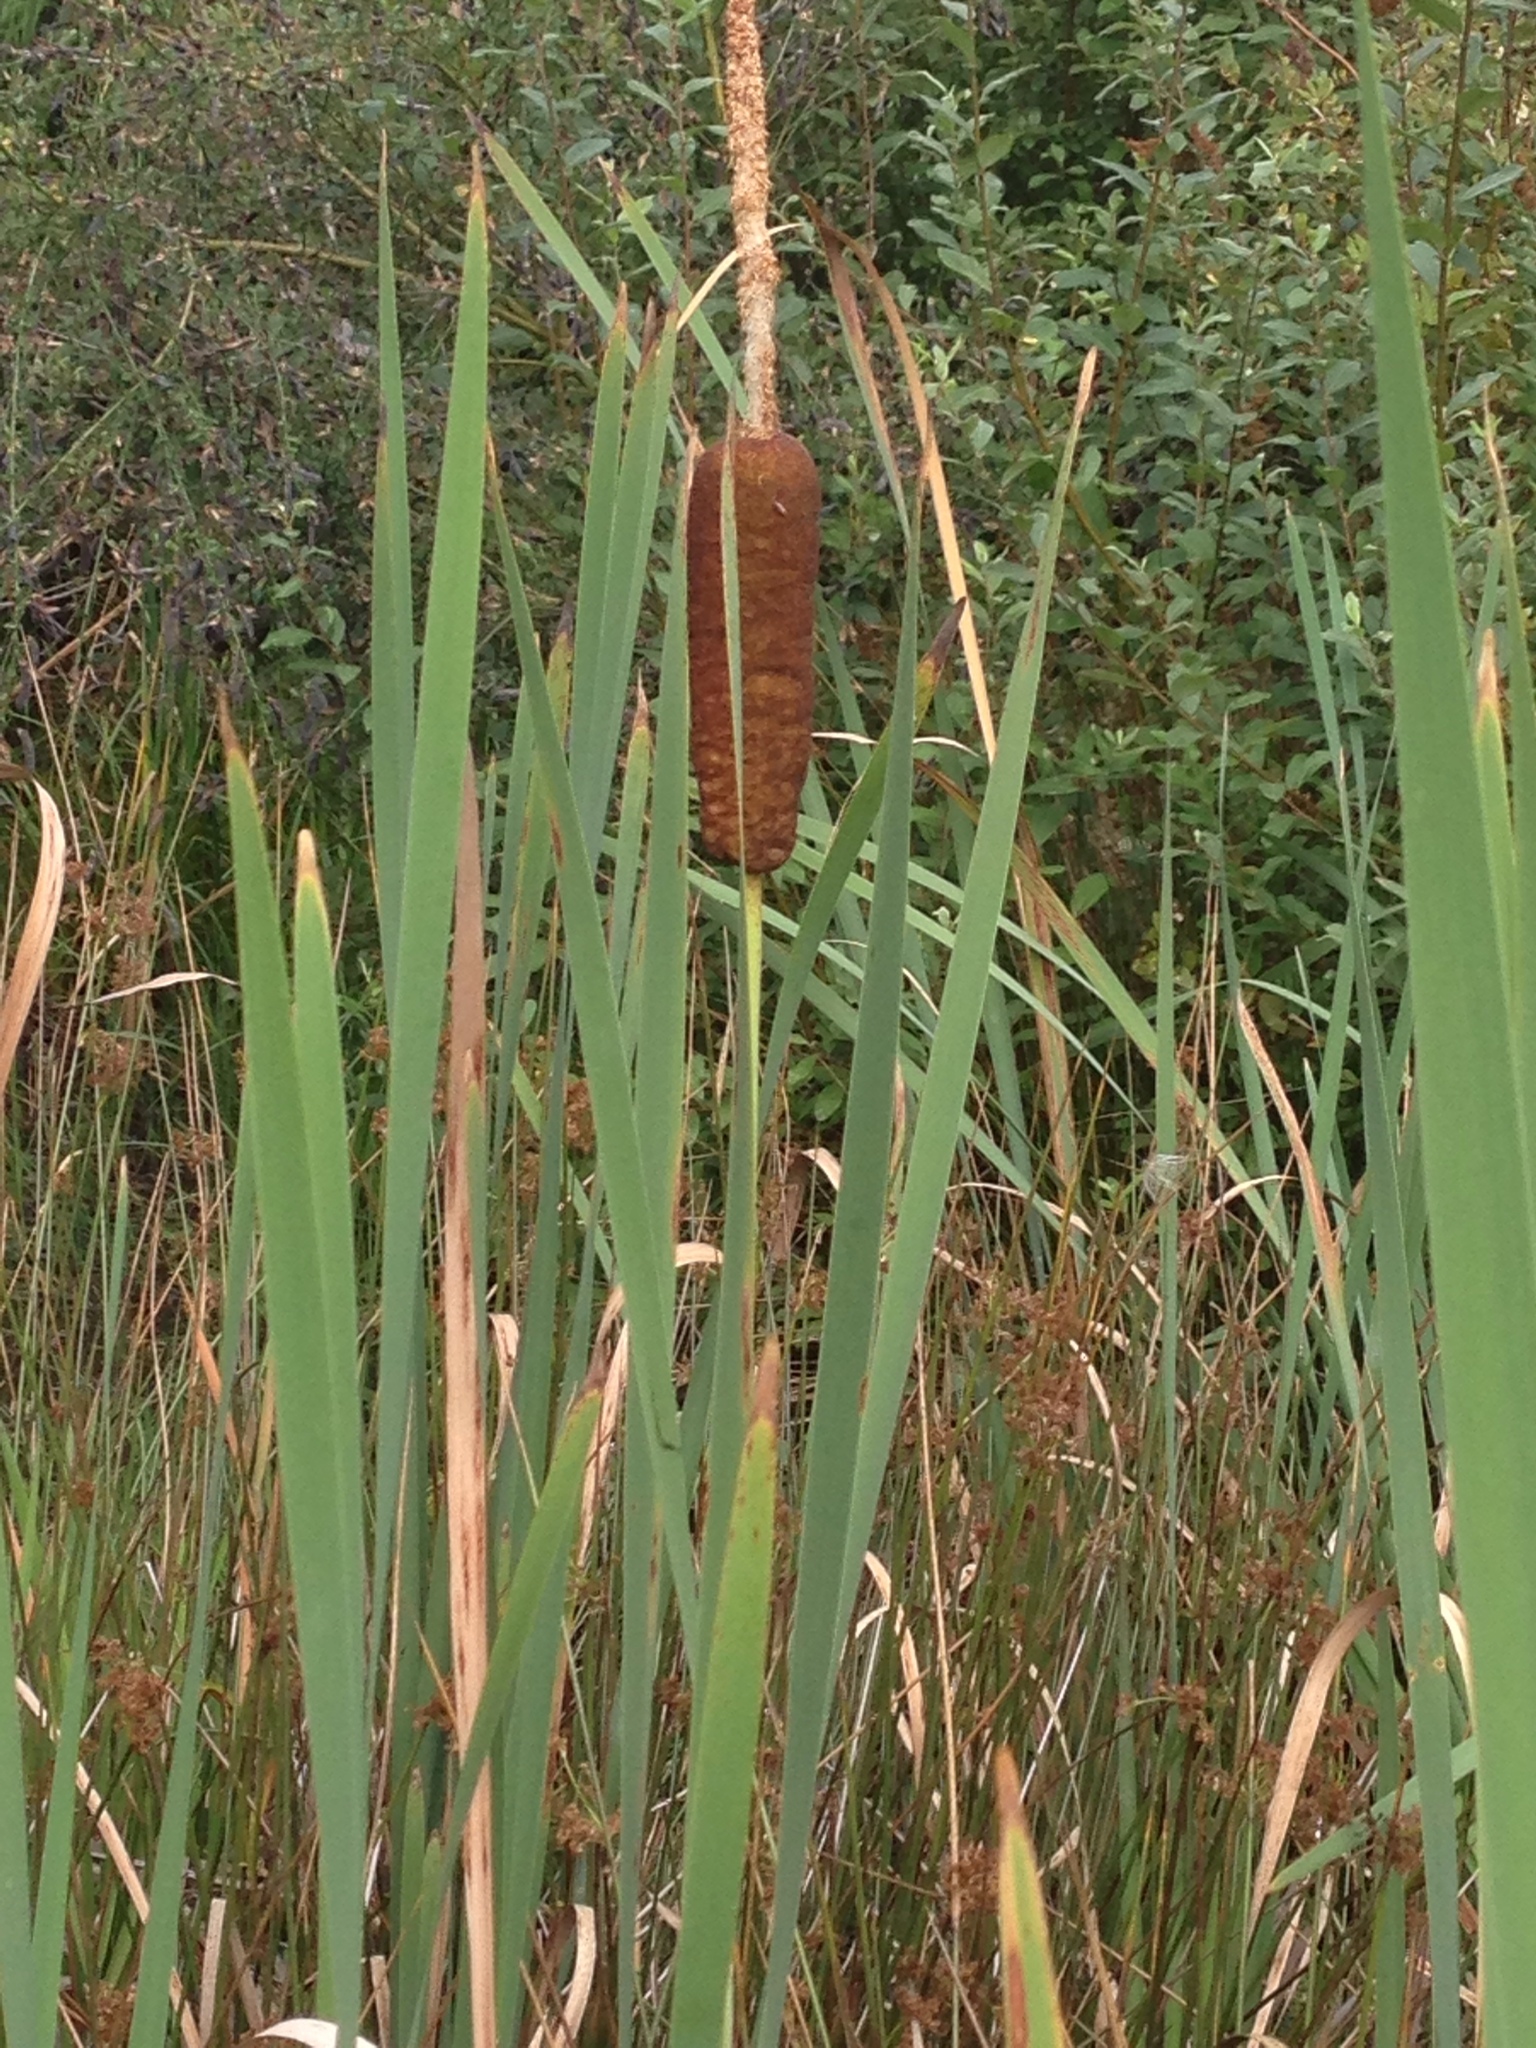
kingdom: Plantae
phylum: Tracheophyta
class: Liliopsida
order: Poales
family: Typhaceae
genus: Typha
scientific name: Typha latifolia
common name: Broadleaf cattail
